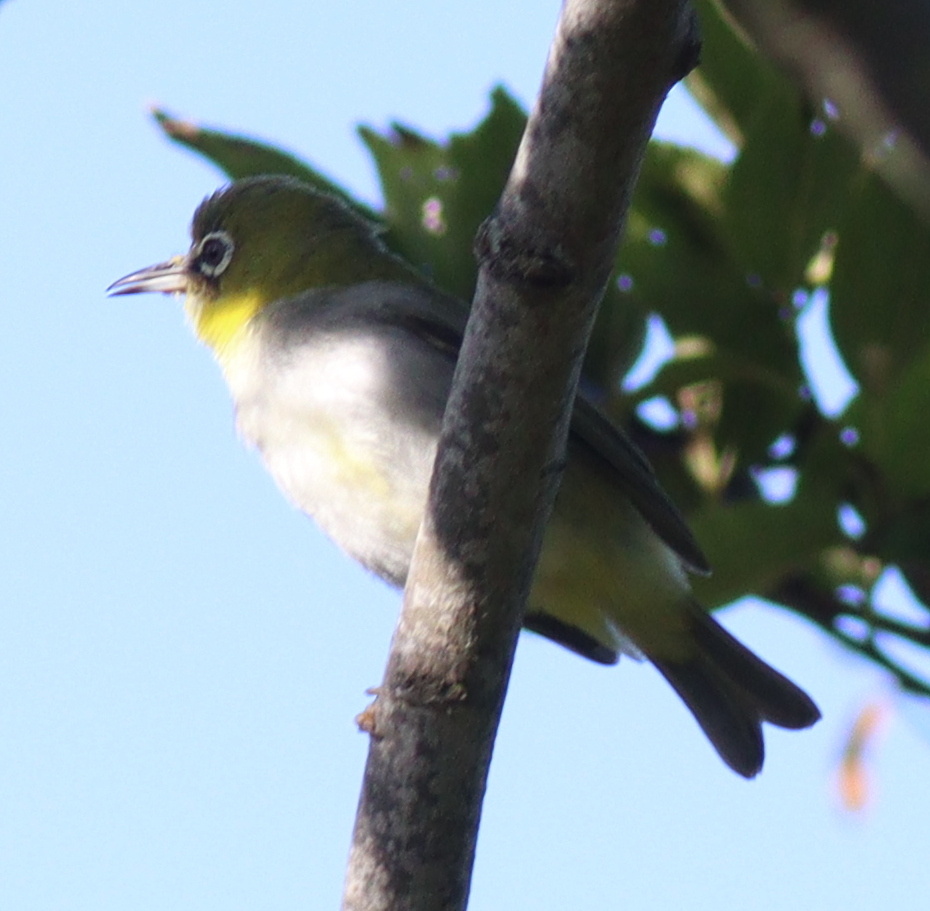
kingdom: Animalia
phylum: Chordata
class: Aves
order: Passeriformes
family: Zosteropidae
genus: Zosterops
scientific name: Zosterops simplex
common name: Swinhoe's white-eye
